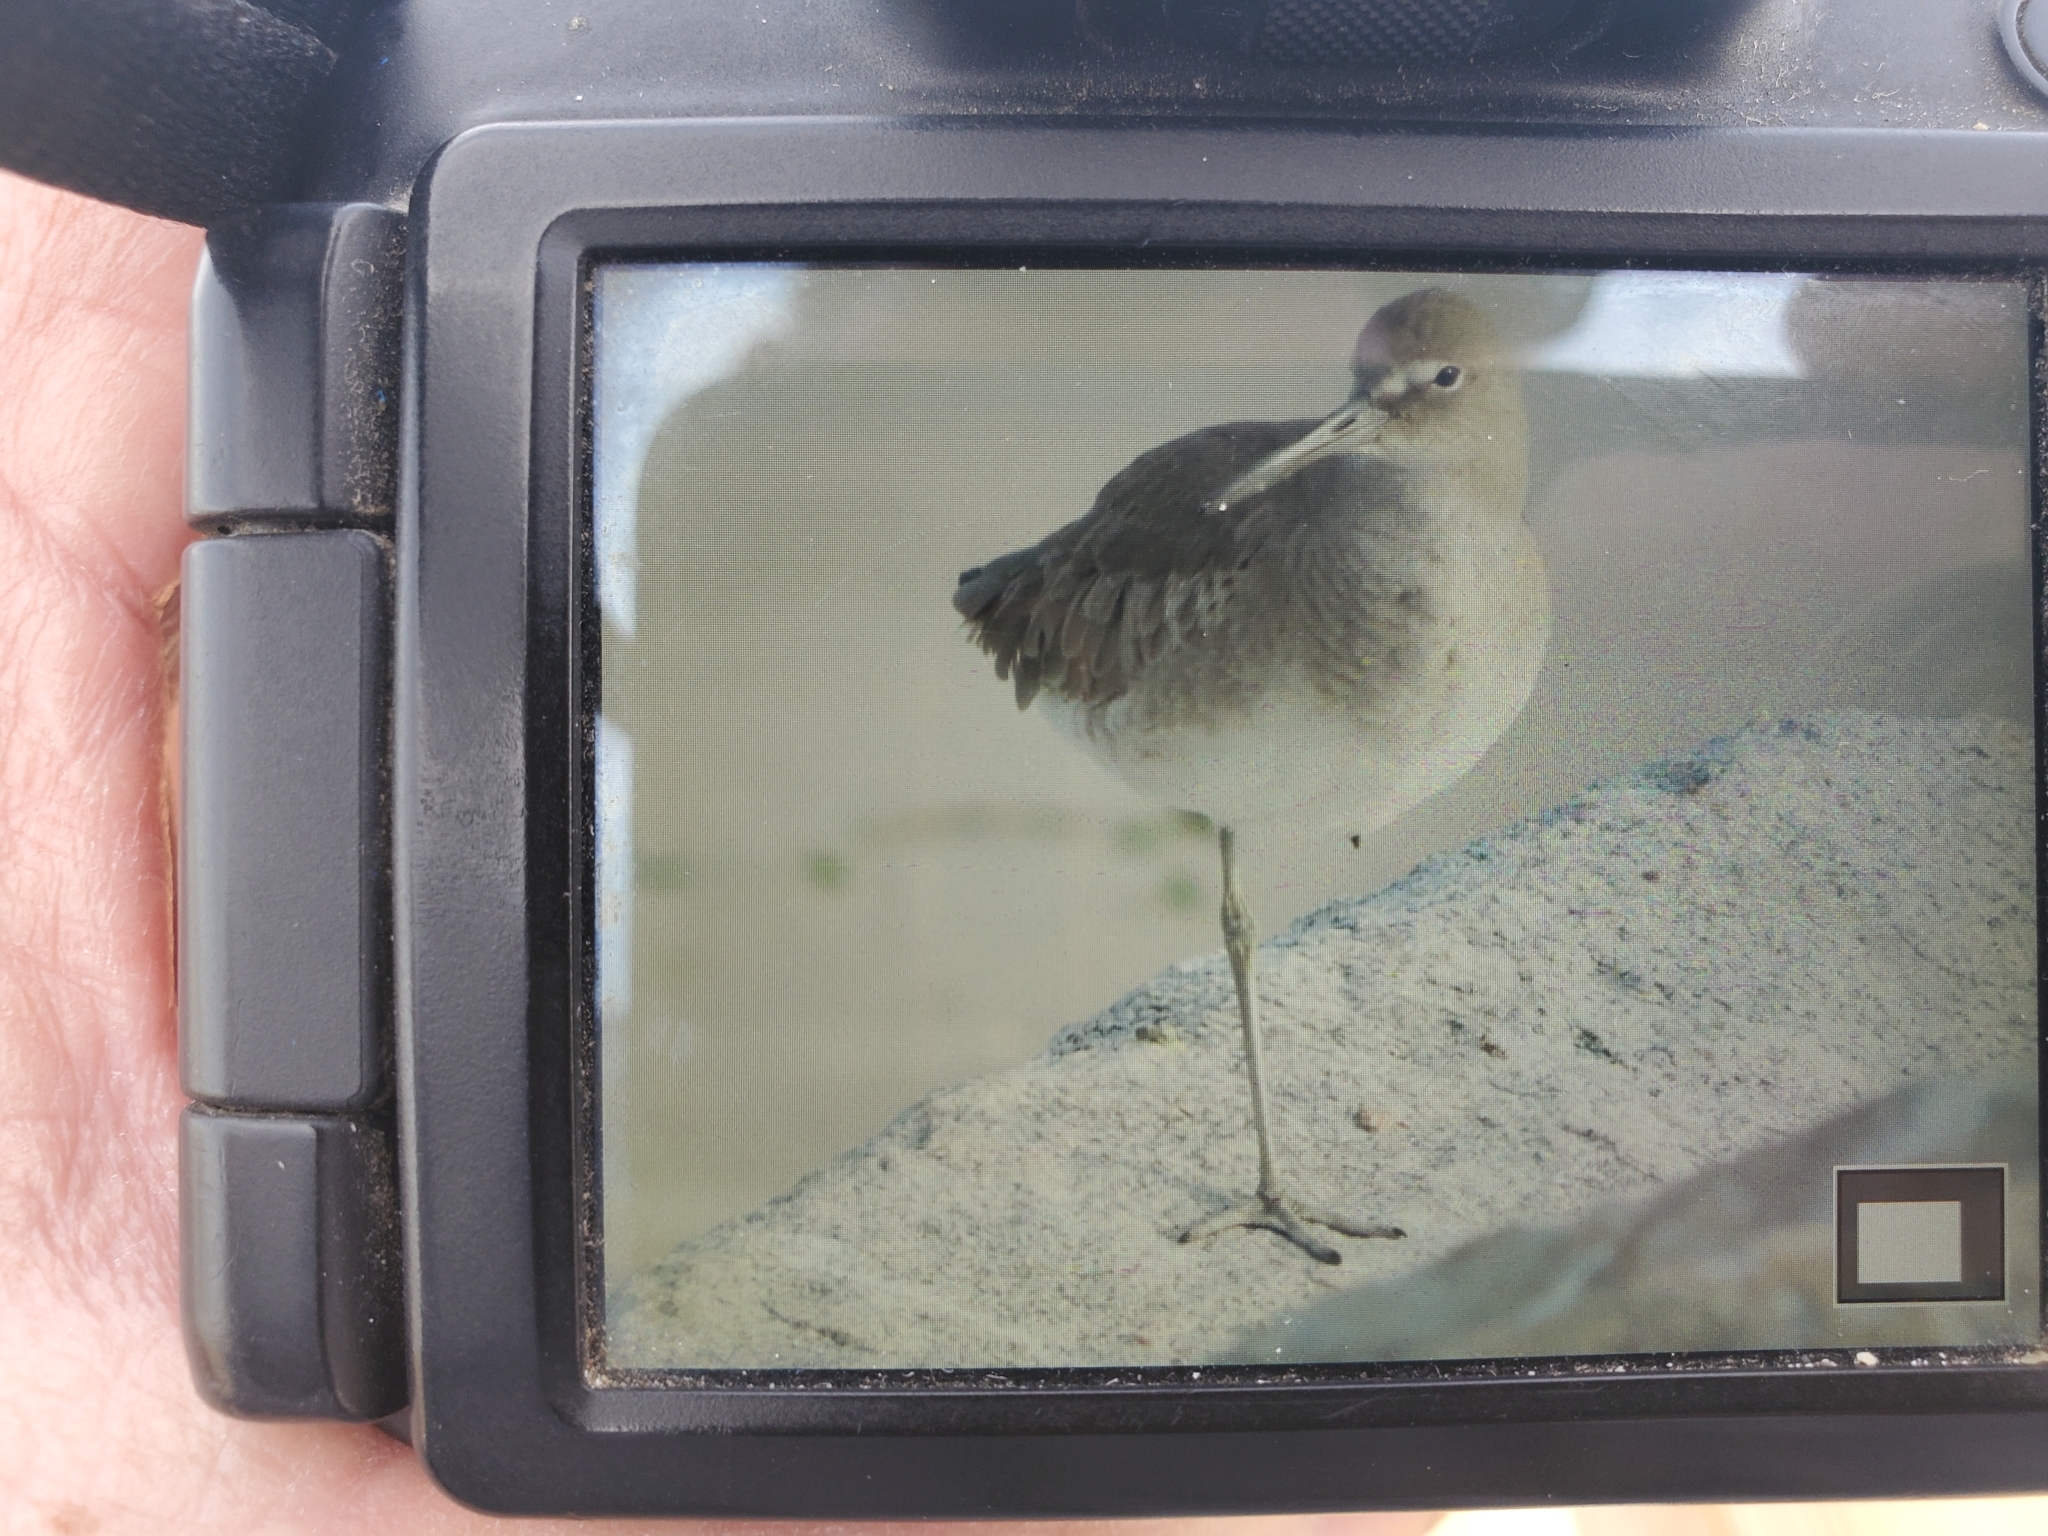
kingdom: Animalia
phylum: Chordata
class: Aves
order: Charadriiformes
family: Scolopacidae
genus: Tringa
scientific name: Tringa semipalmata
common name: Willet
